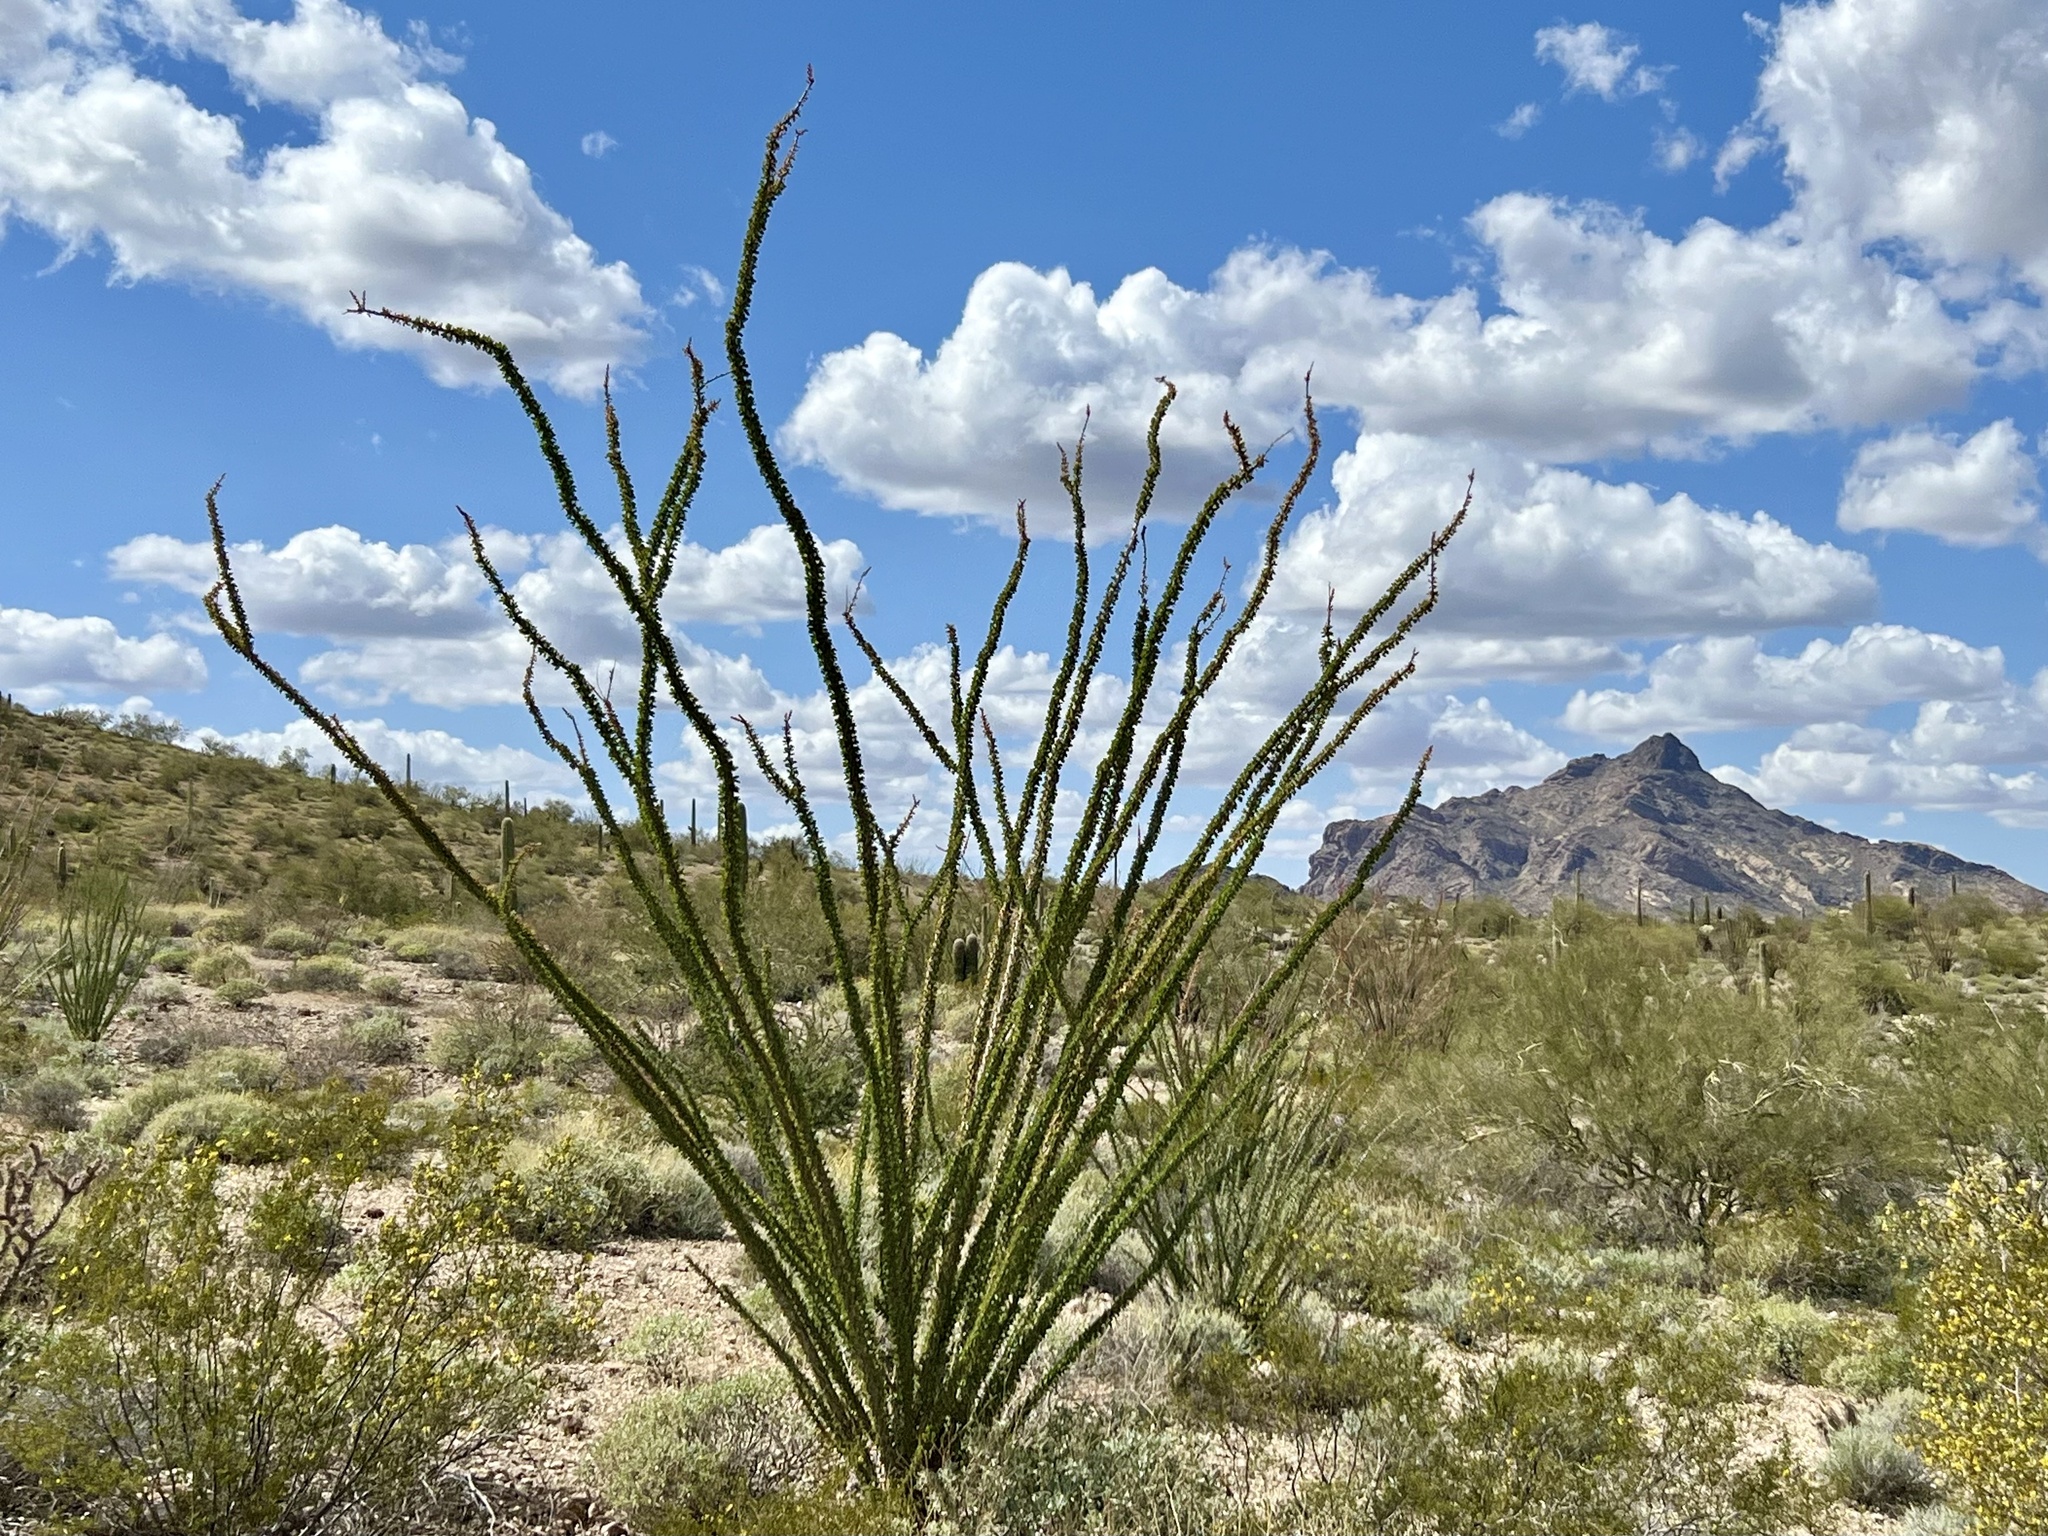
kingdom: Plantae
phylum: Tracheophyta
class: Magnoliopsida
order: Ericales
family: Fouquieriaceae
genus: Fouquieria
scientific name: Fouquieria splendens
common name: Vine-cactus
